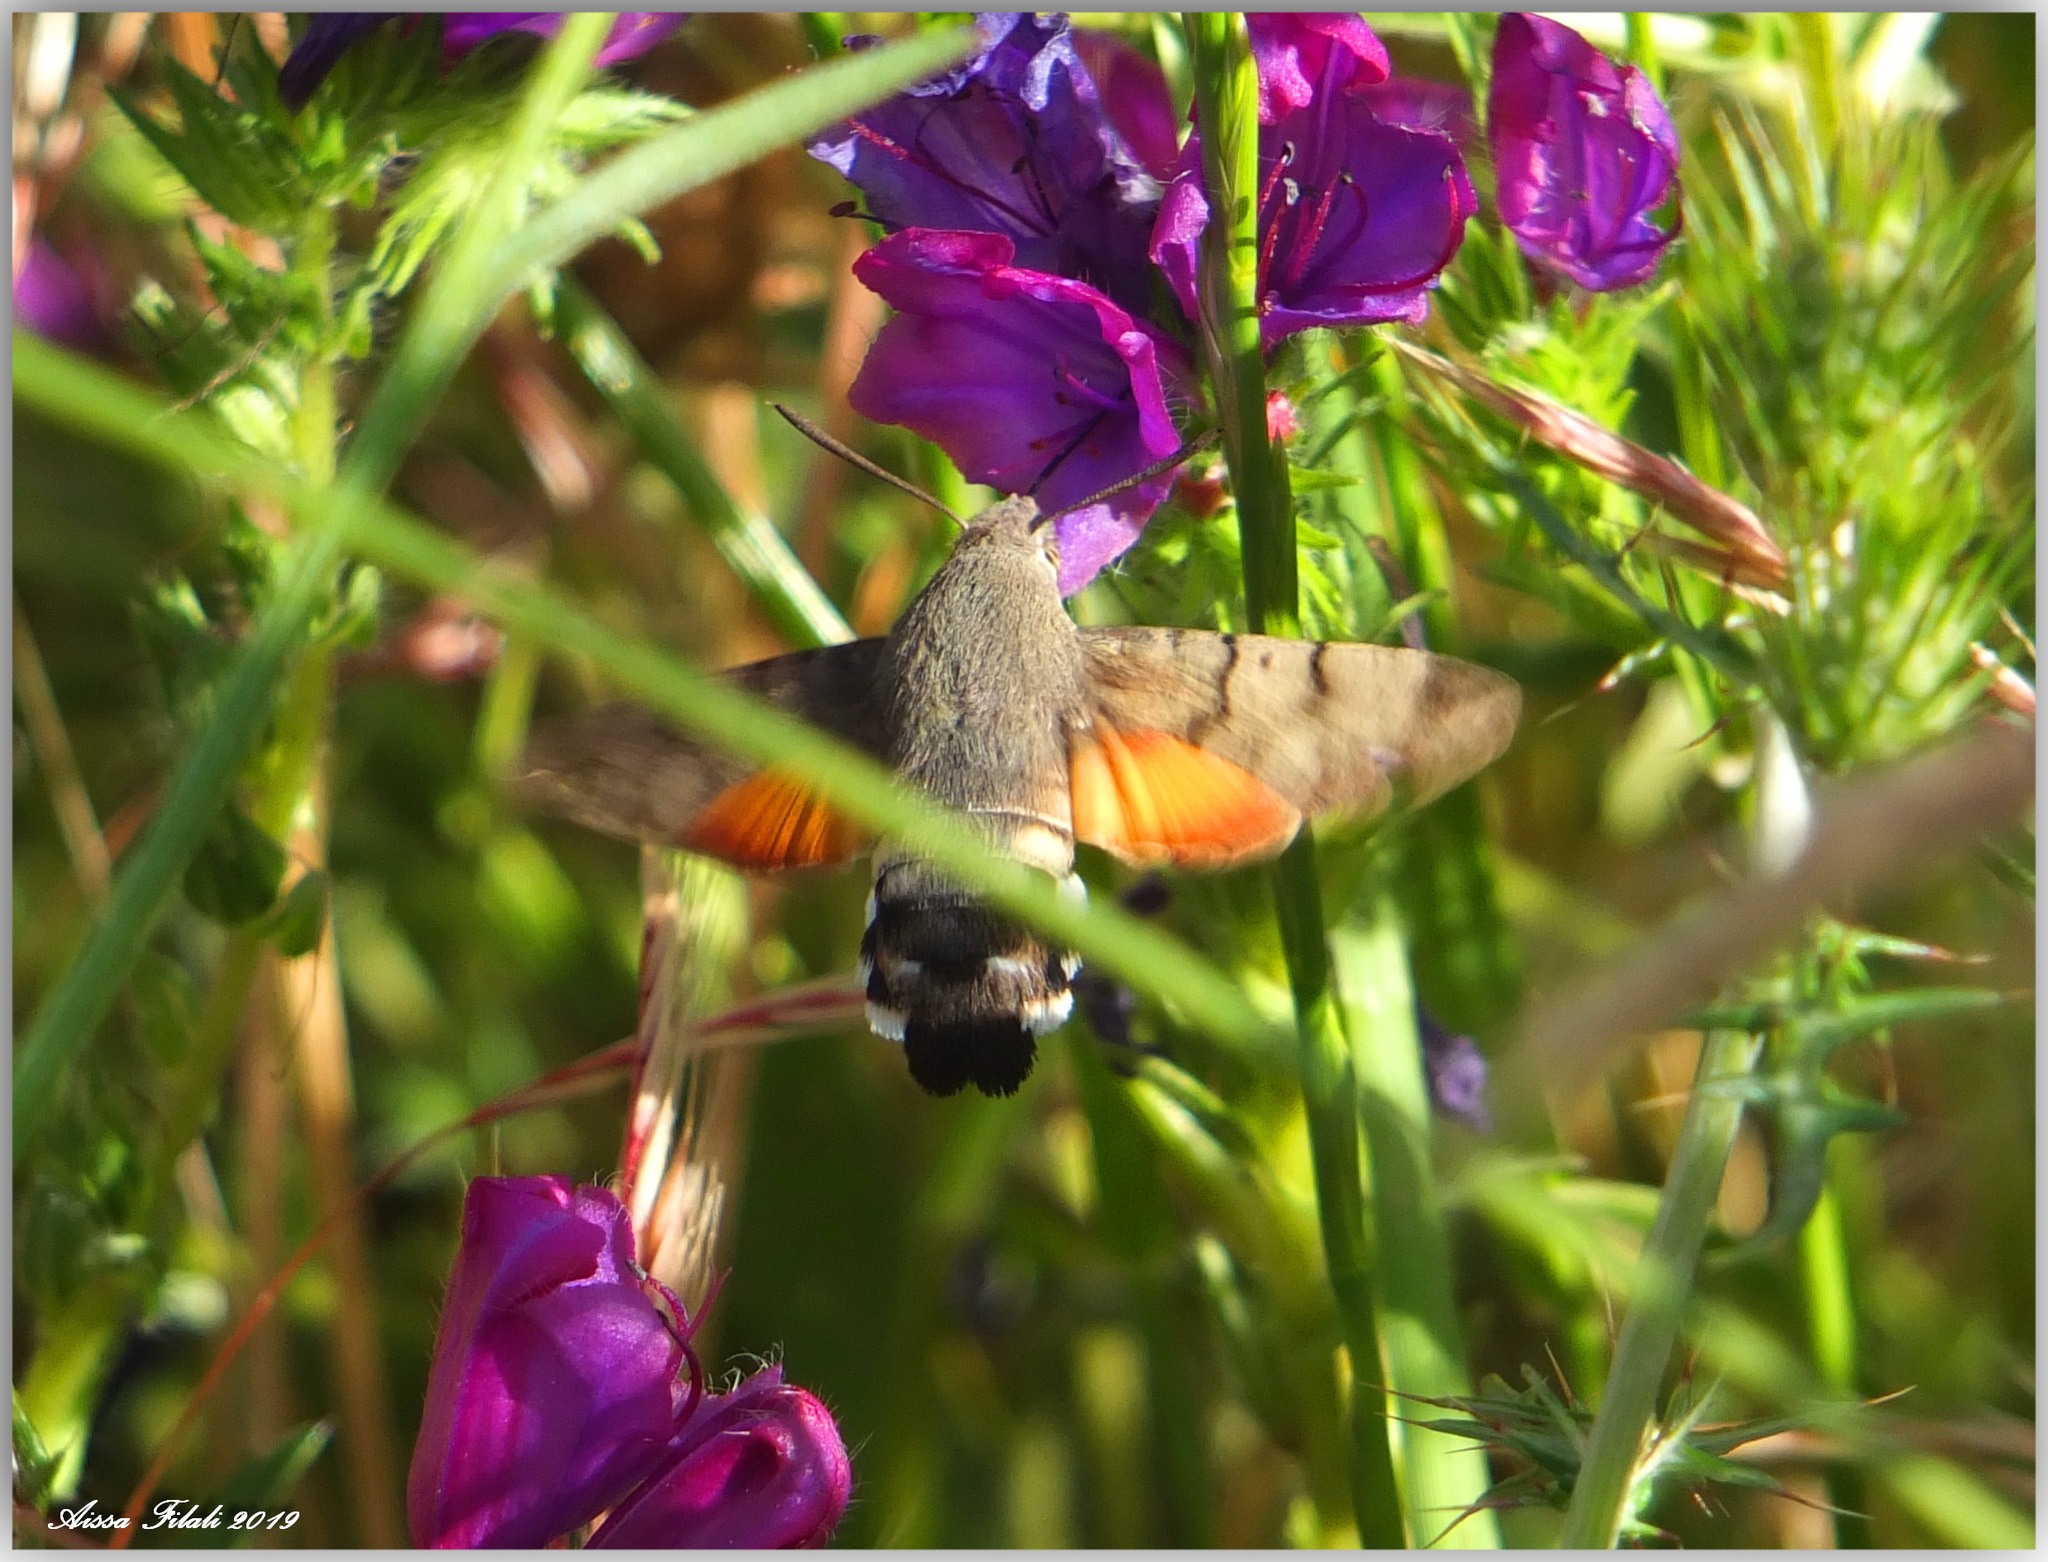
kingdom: Animalia
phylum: Arthropoda
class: Insecta
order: Lepidoptera
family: Sphingidae
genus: Macroglossum
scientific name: Macroglossum stellatarum
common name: Humming-bird hawk-moth
